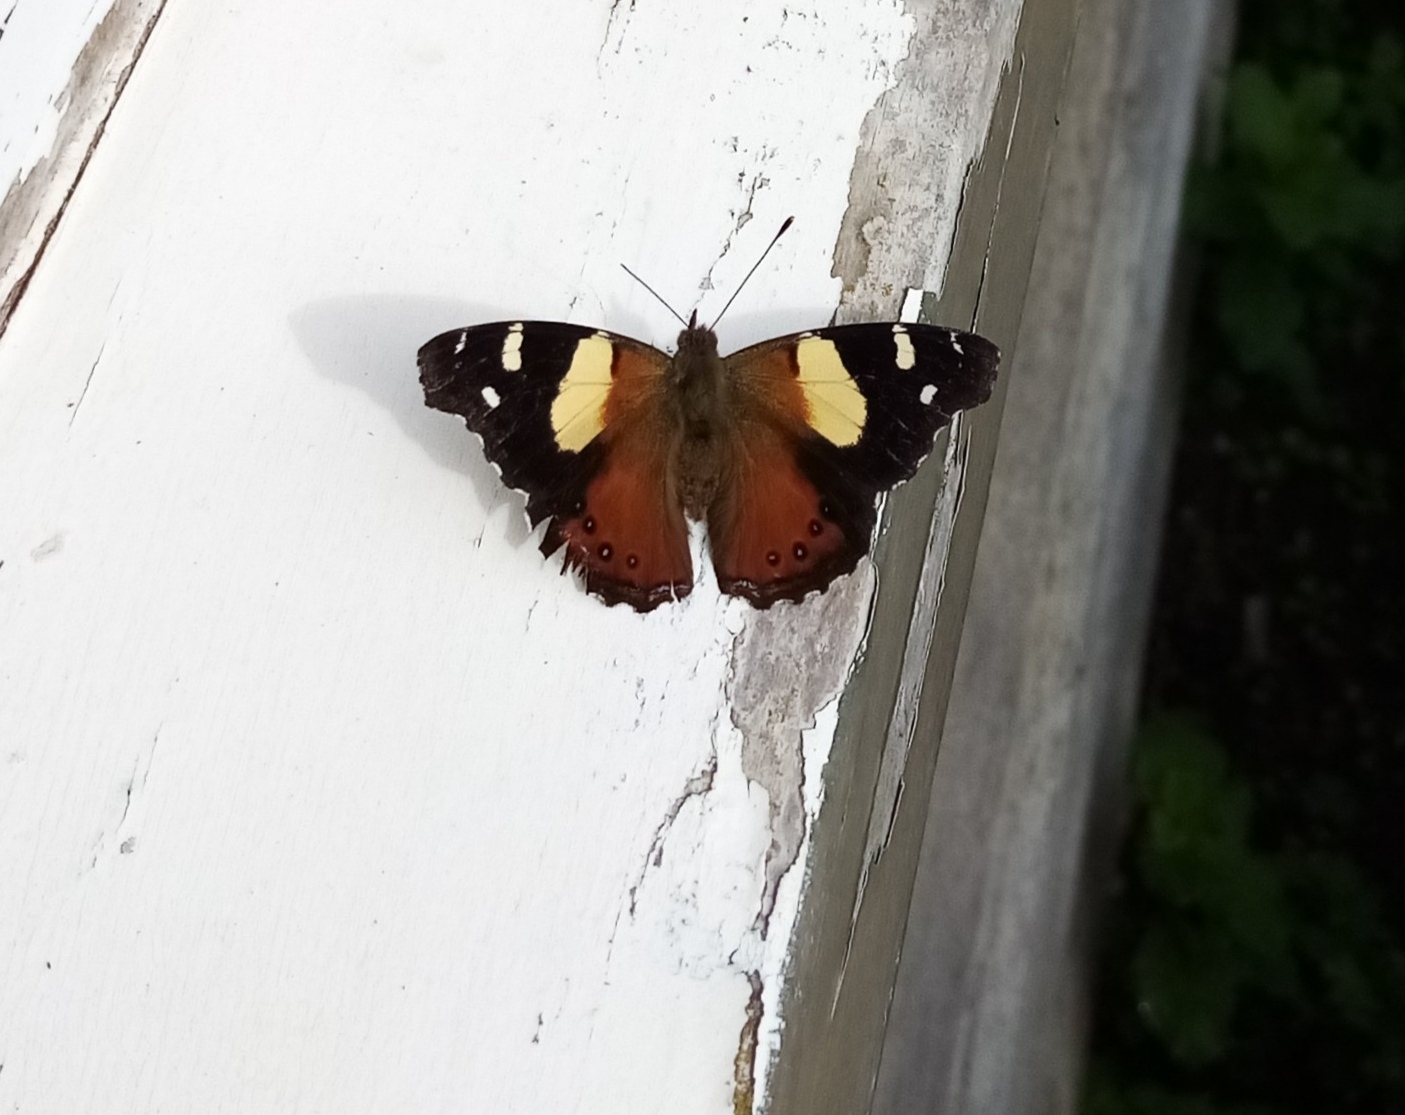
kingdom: Animalia
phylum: Arthropoda
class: Insecta
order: Lepidoptera
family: Nymphalidae
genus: Vanessa
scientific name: Vanessa itea
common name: Yellow admiral
